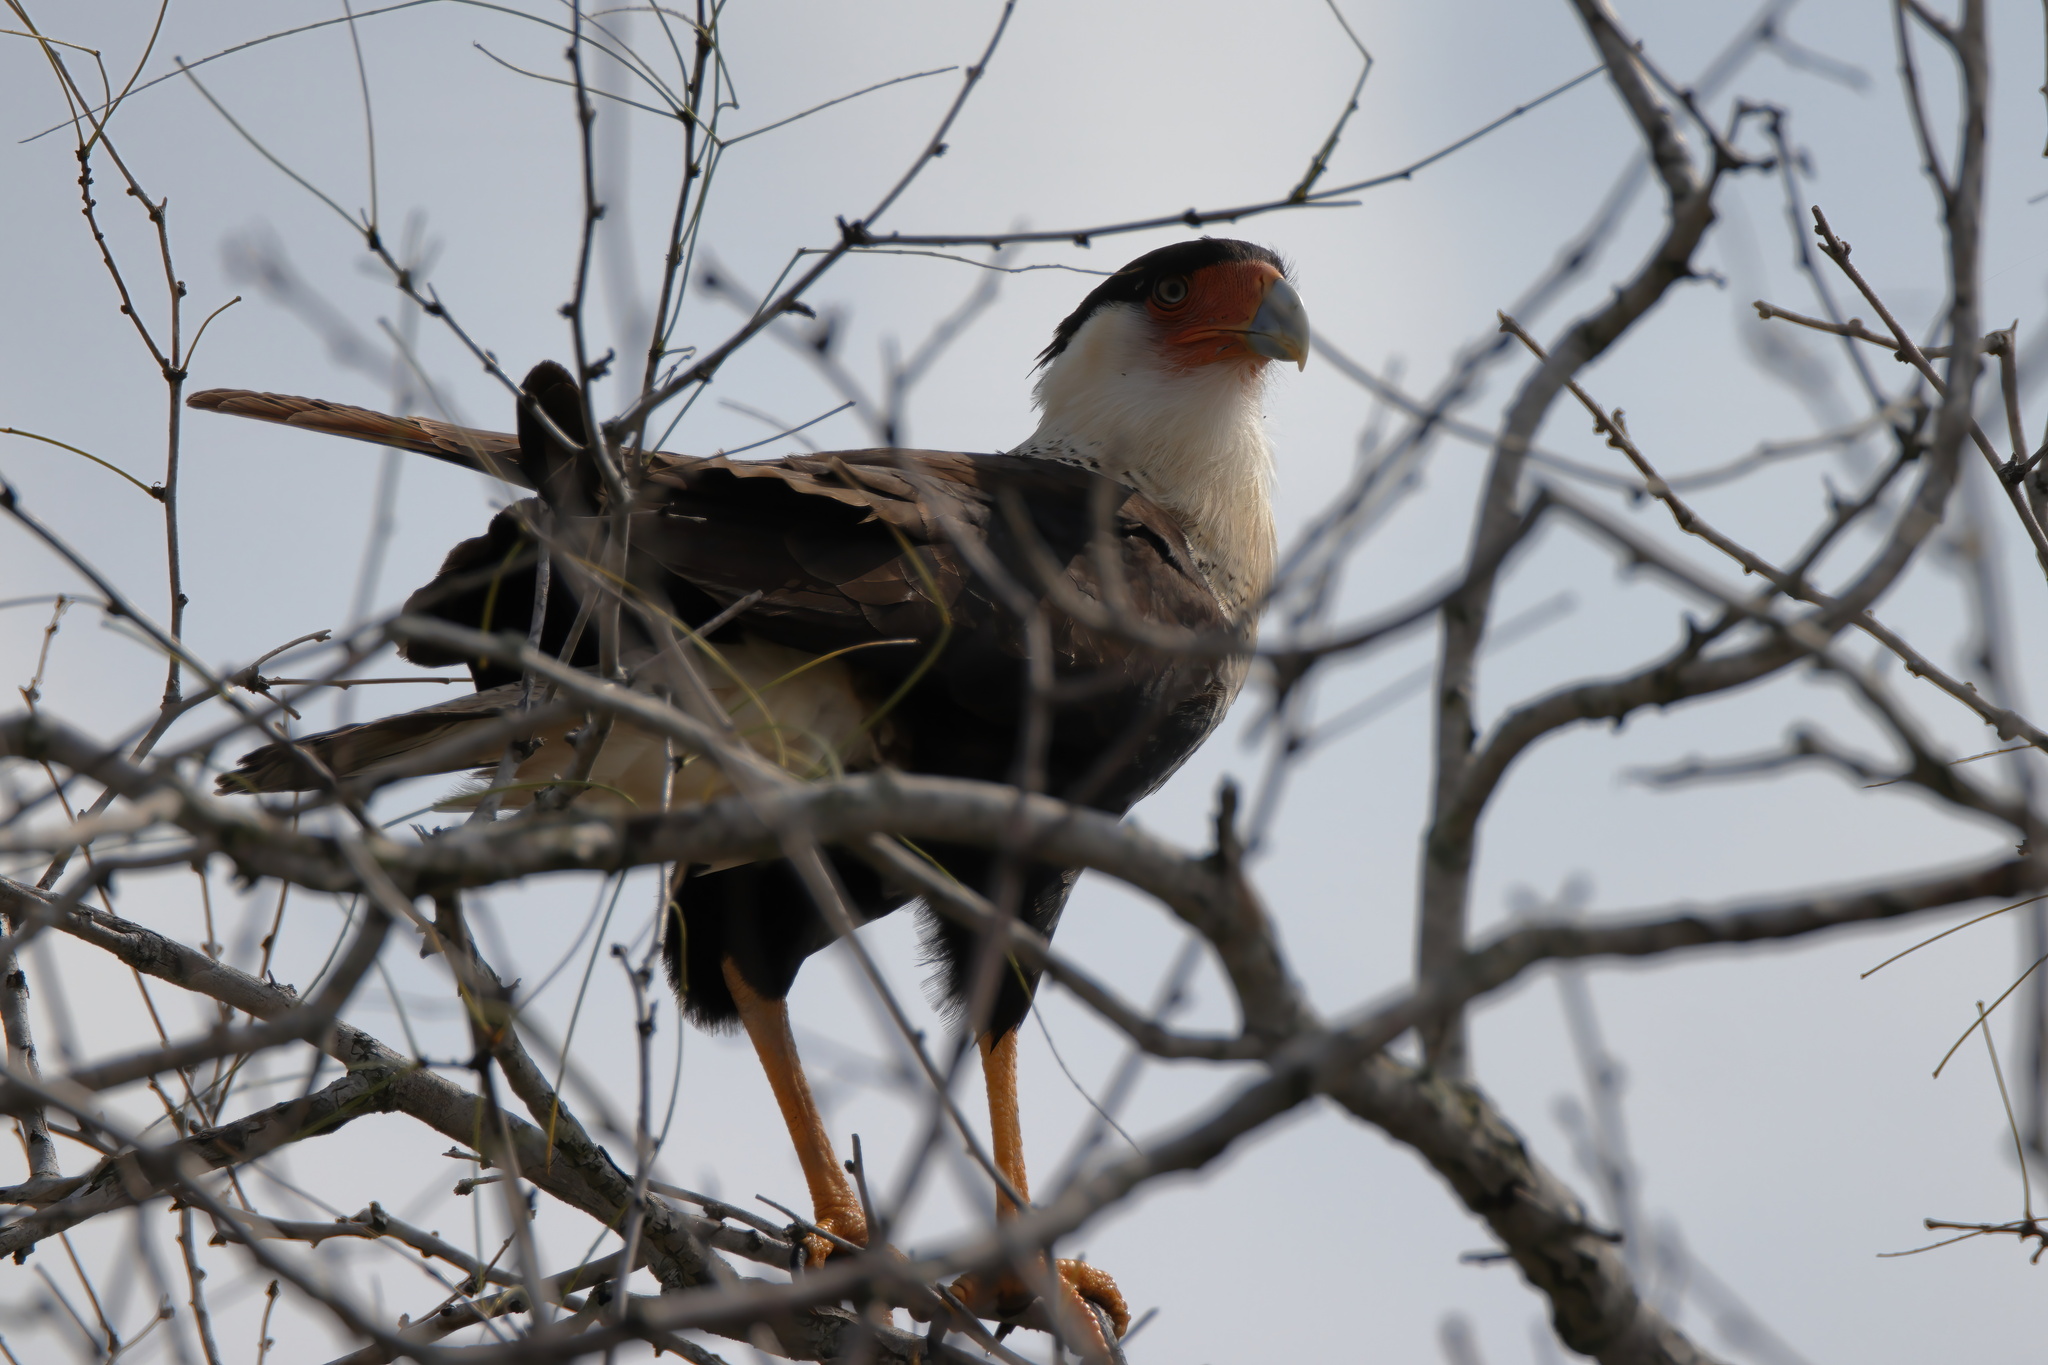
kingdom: Animalia
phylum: Chordata
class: Aves
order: Falconiformes
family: Falconidae
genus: Caracara
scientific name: Caracara plancus
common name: Southern caracara
